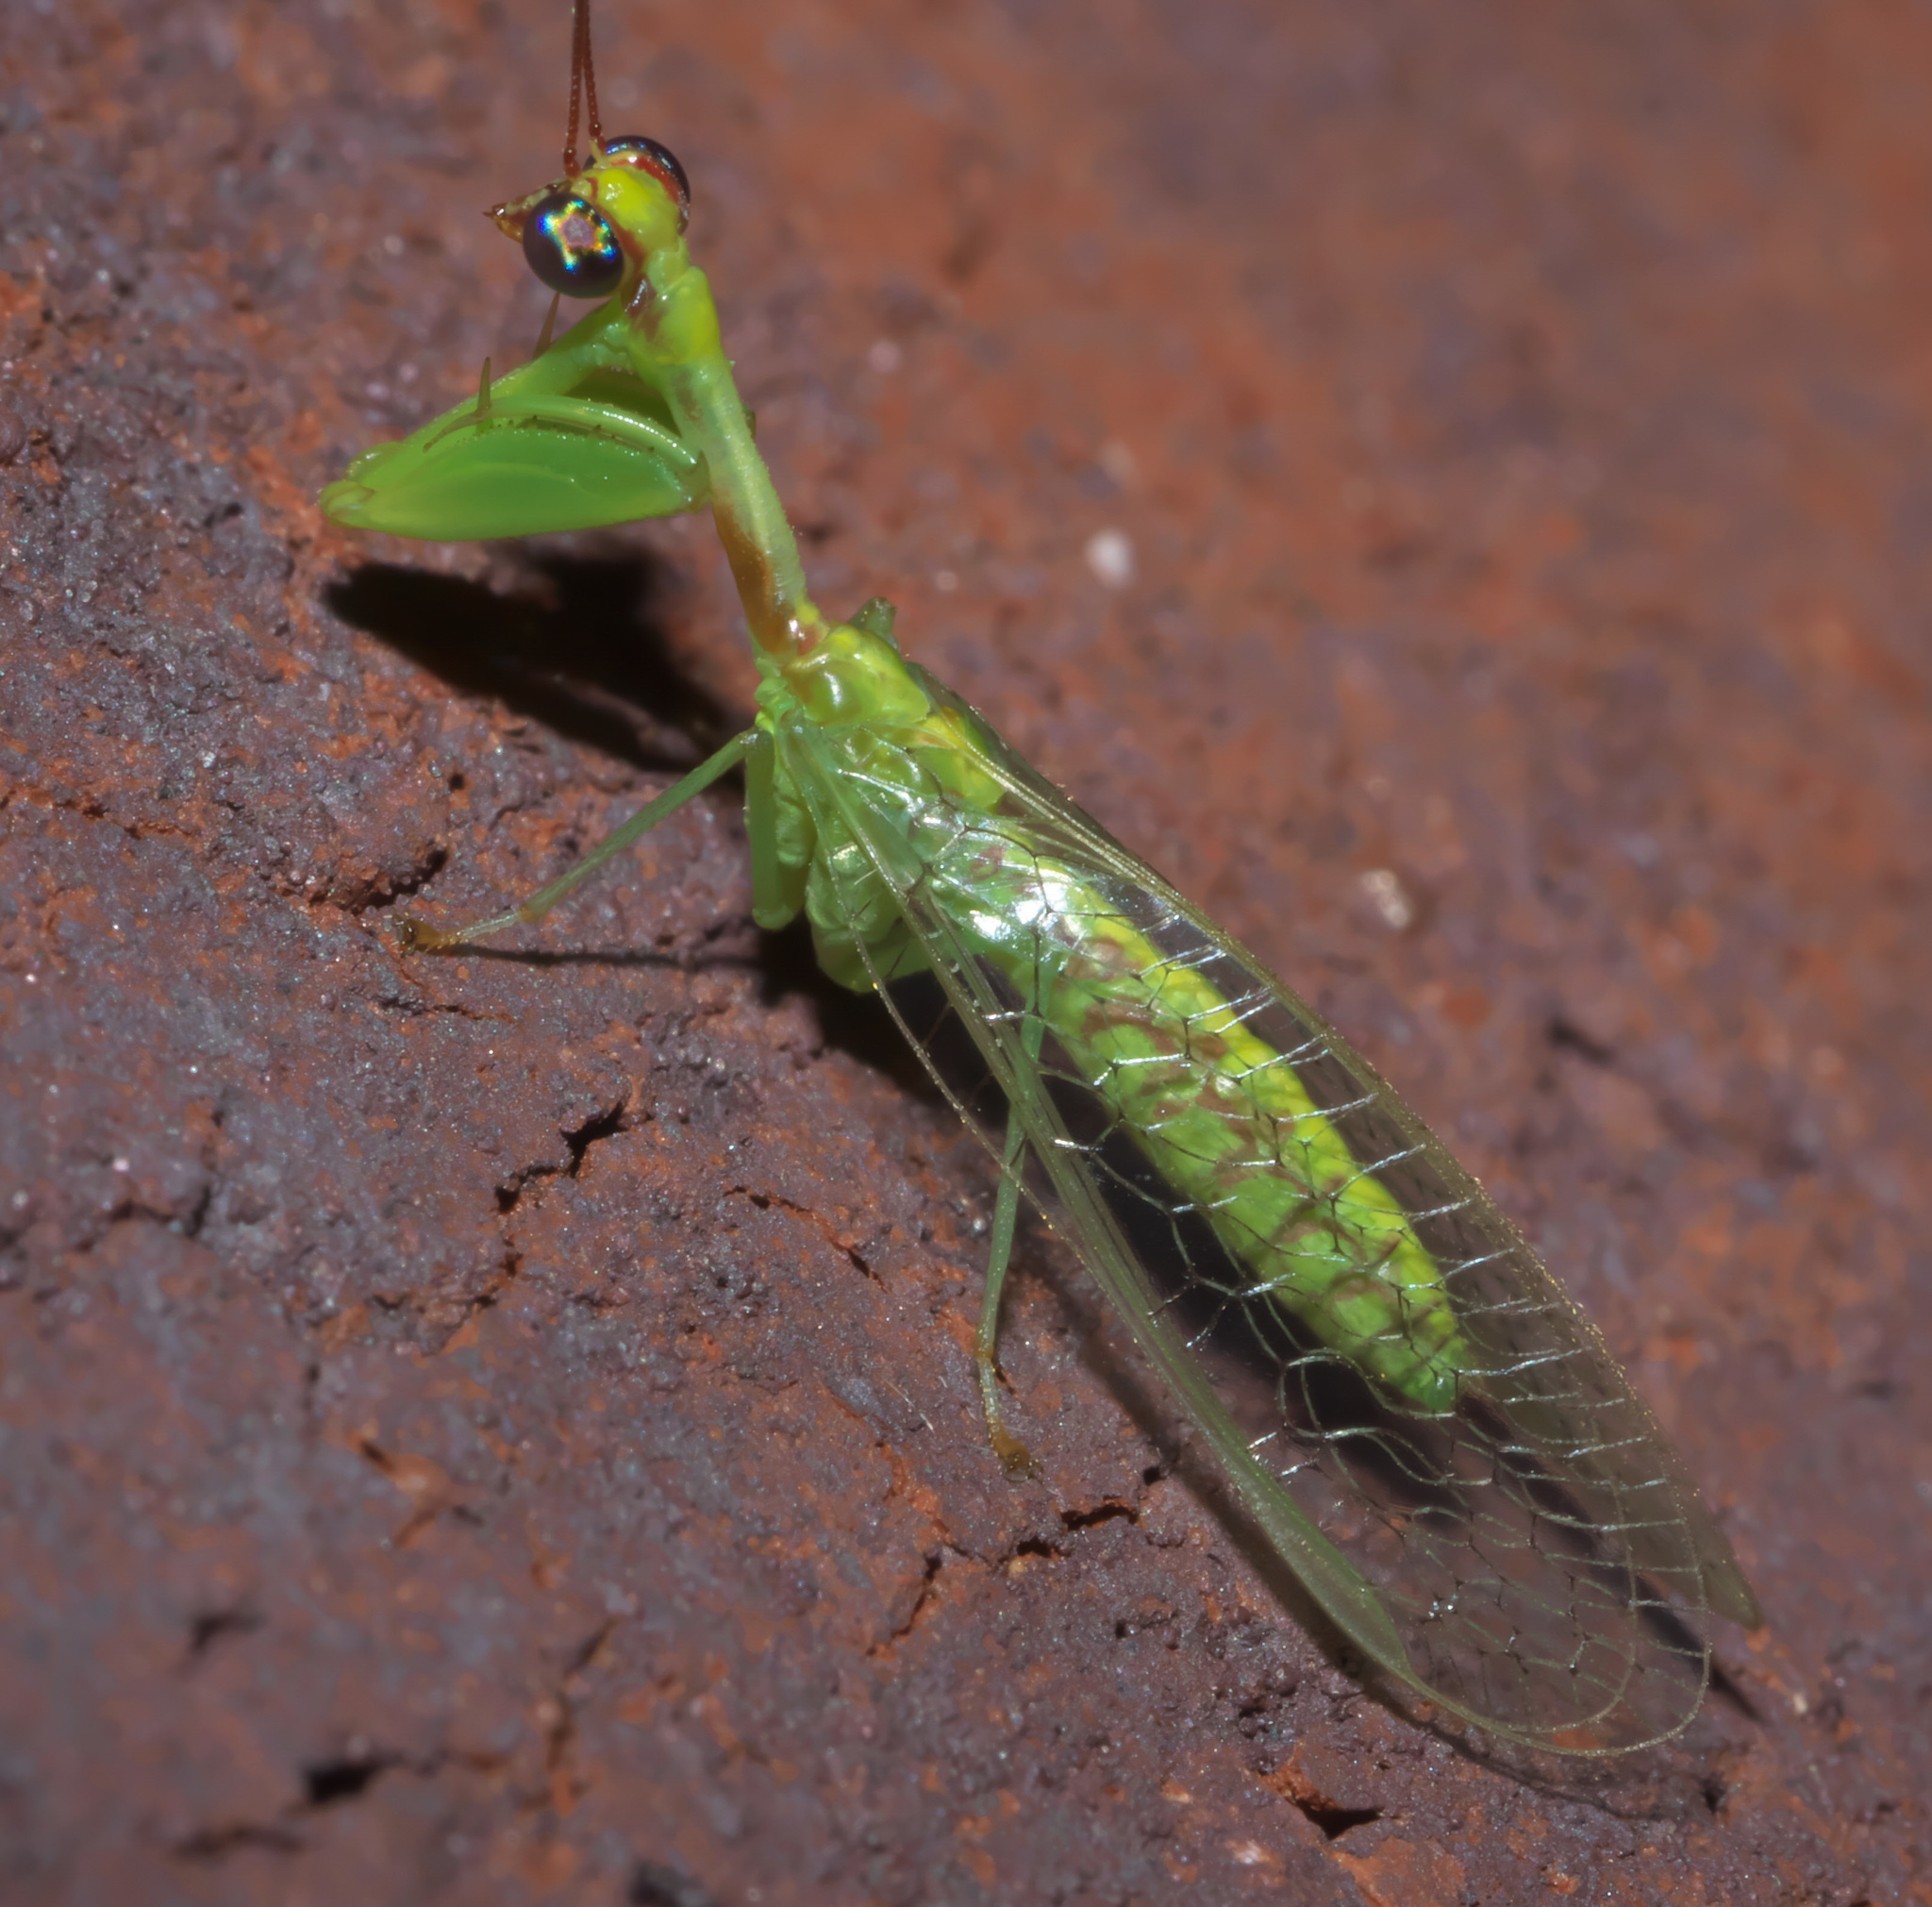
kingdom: Animalia
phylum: Arthropoda
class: Insecta
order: Neuroptera
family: Mantispidae
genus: Zeugomantispa
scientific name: Zeugomantispa minuta
